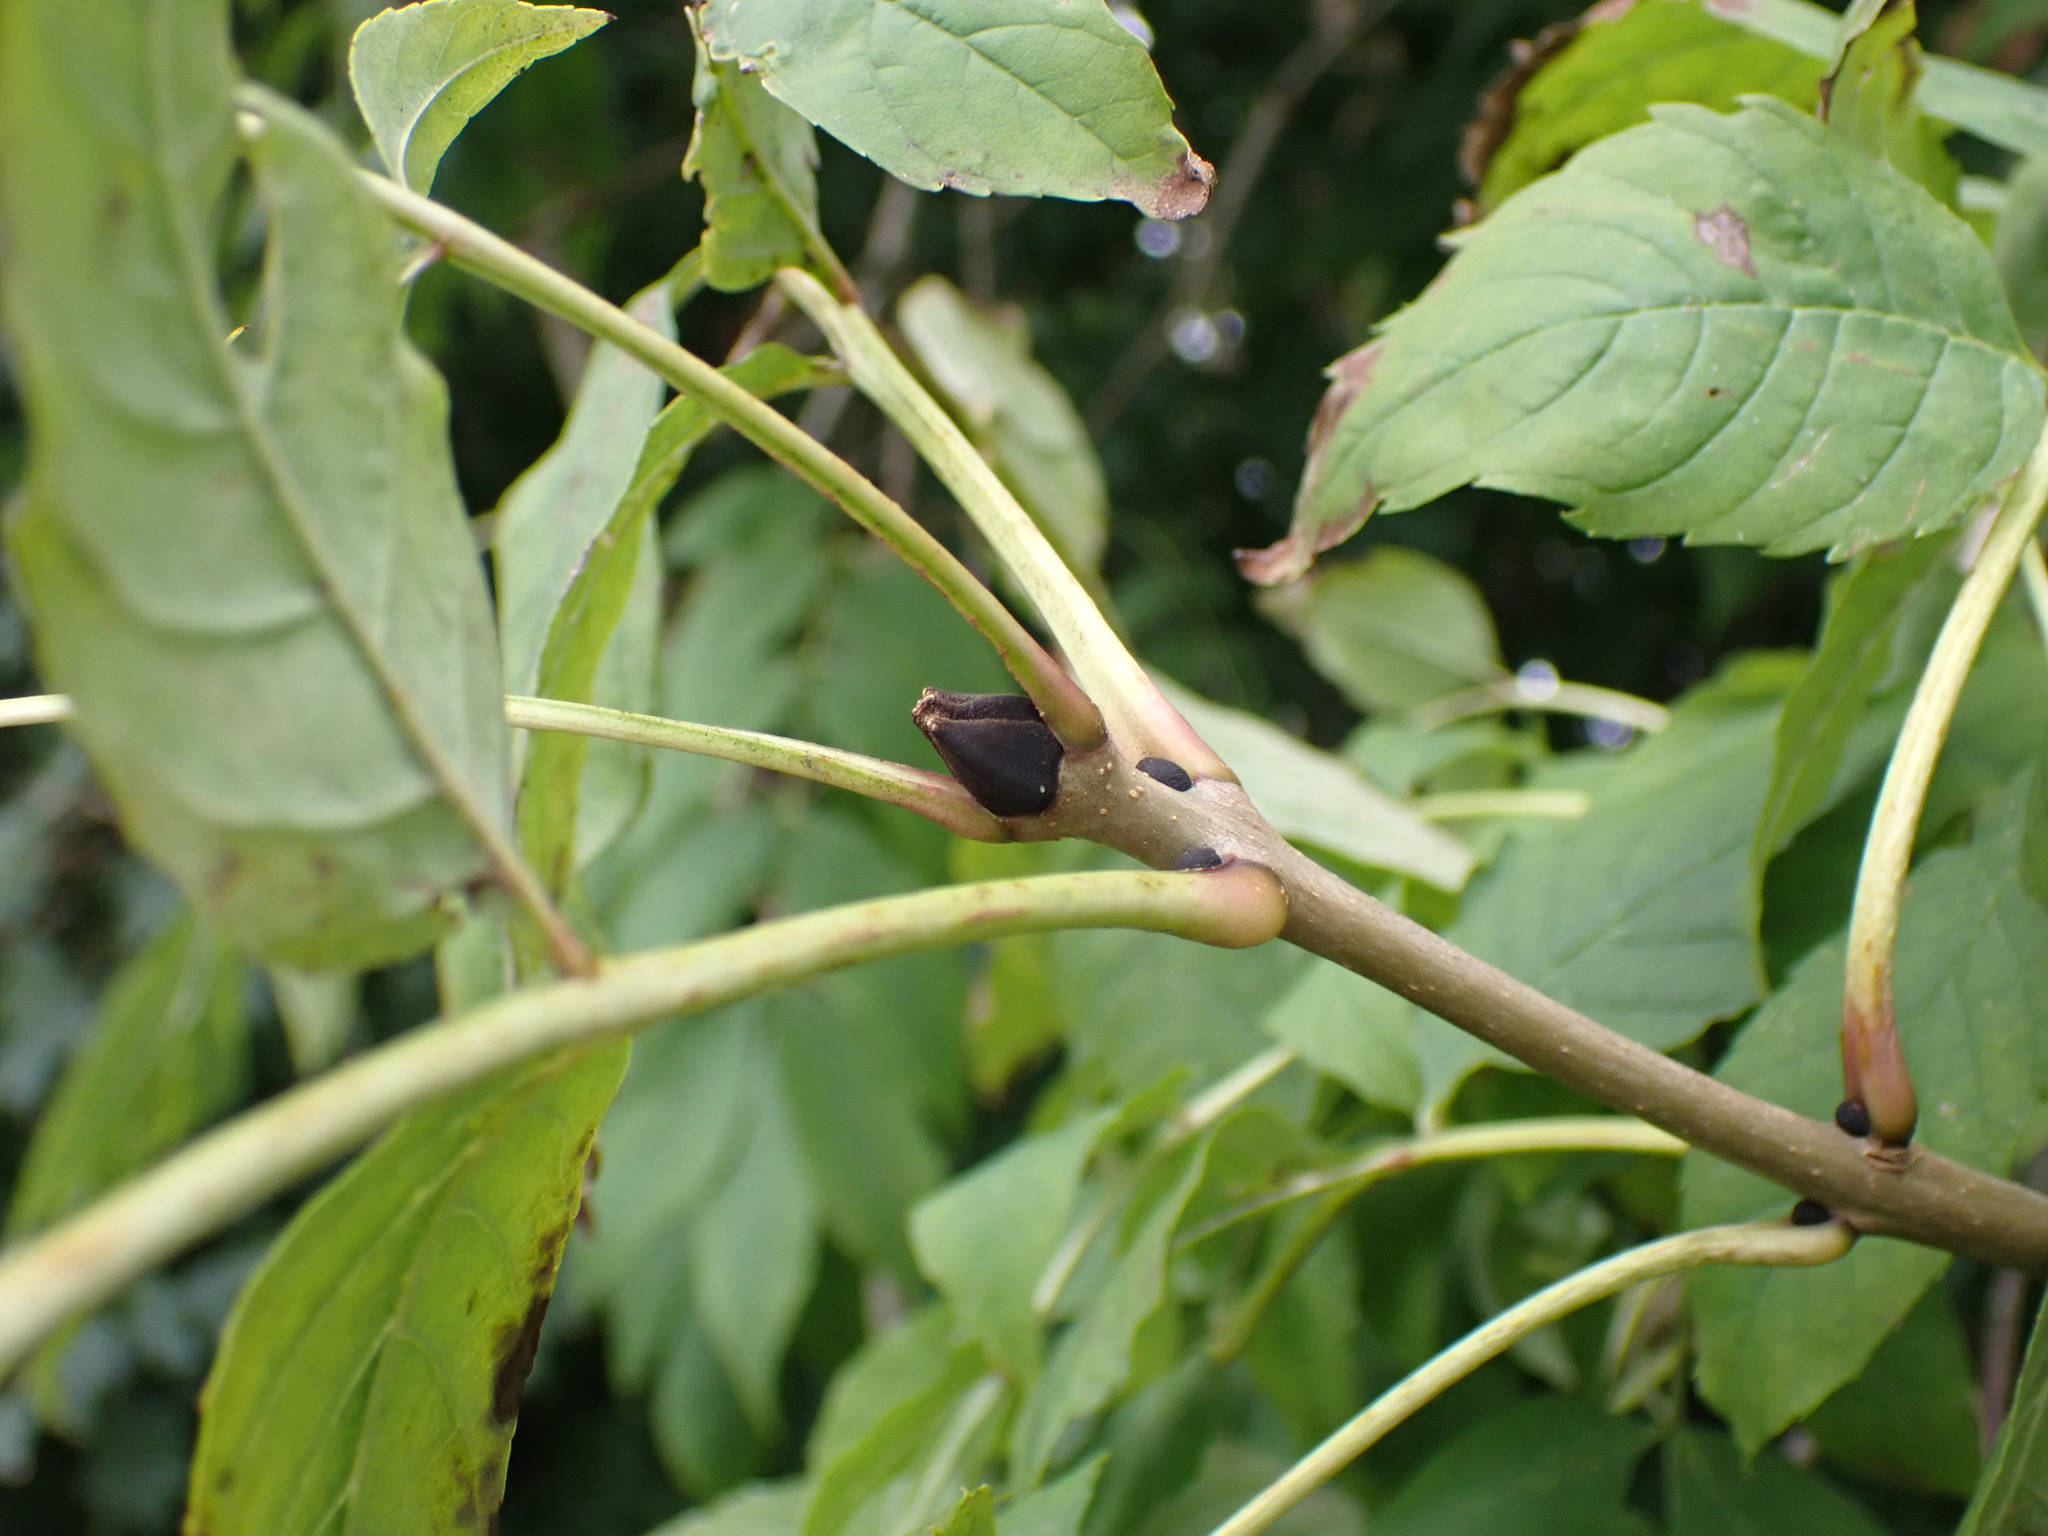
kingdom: Plantae
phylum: Tracheophyta
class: Magnoliopsida
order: Lamiales
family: Oleaceae
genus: Fraxinus
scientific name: Fraxinus excelsior
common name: European ash
